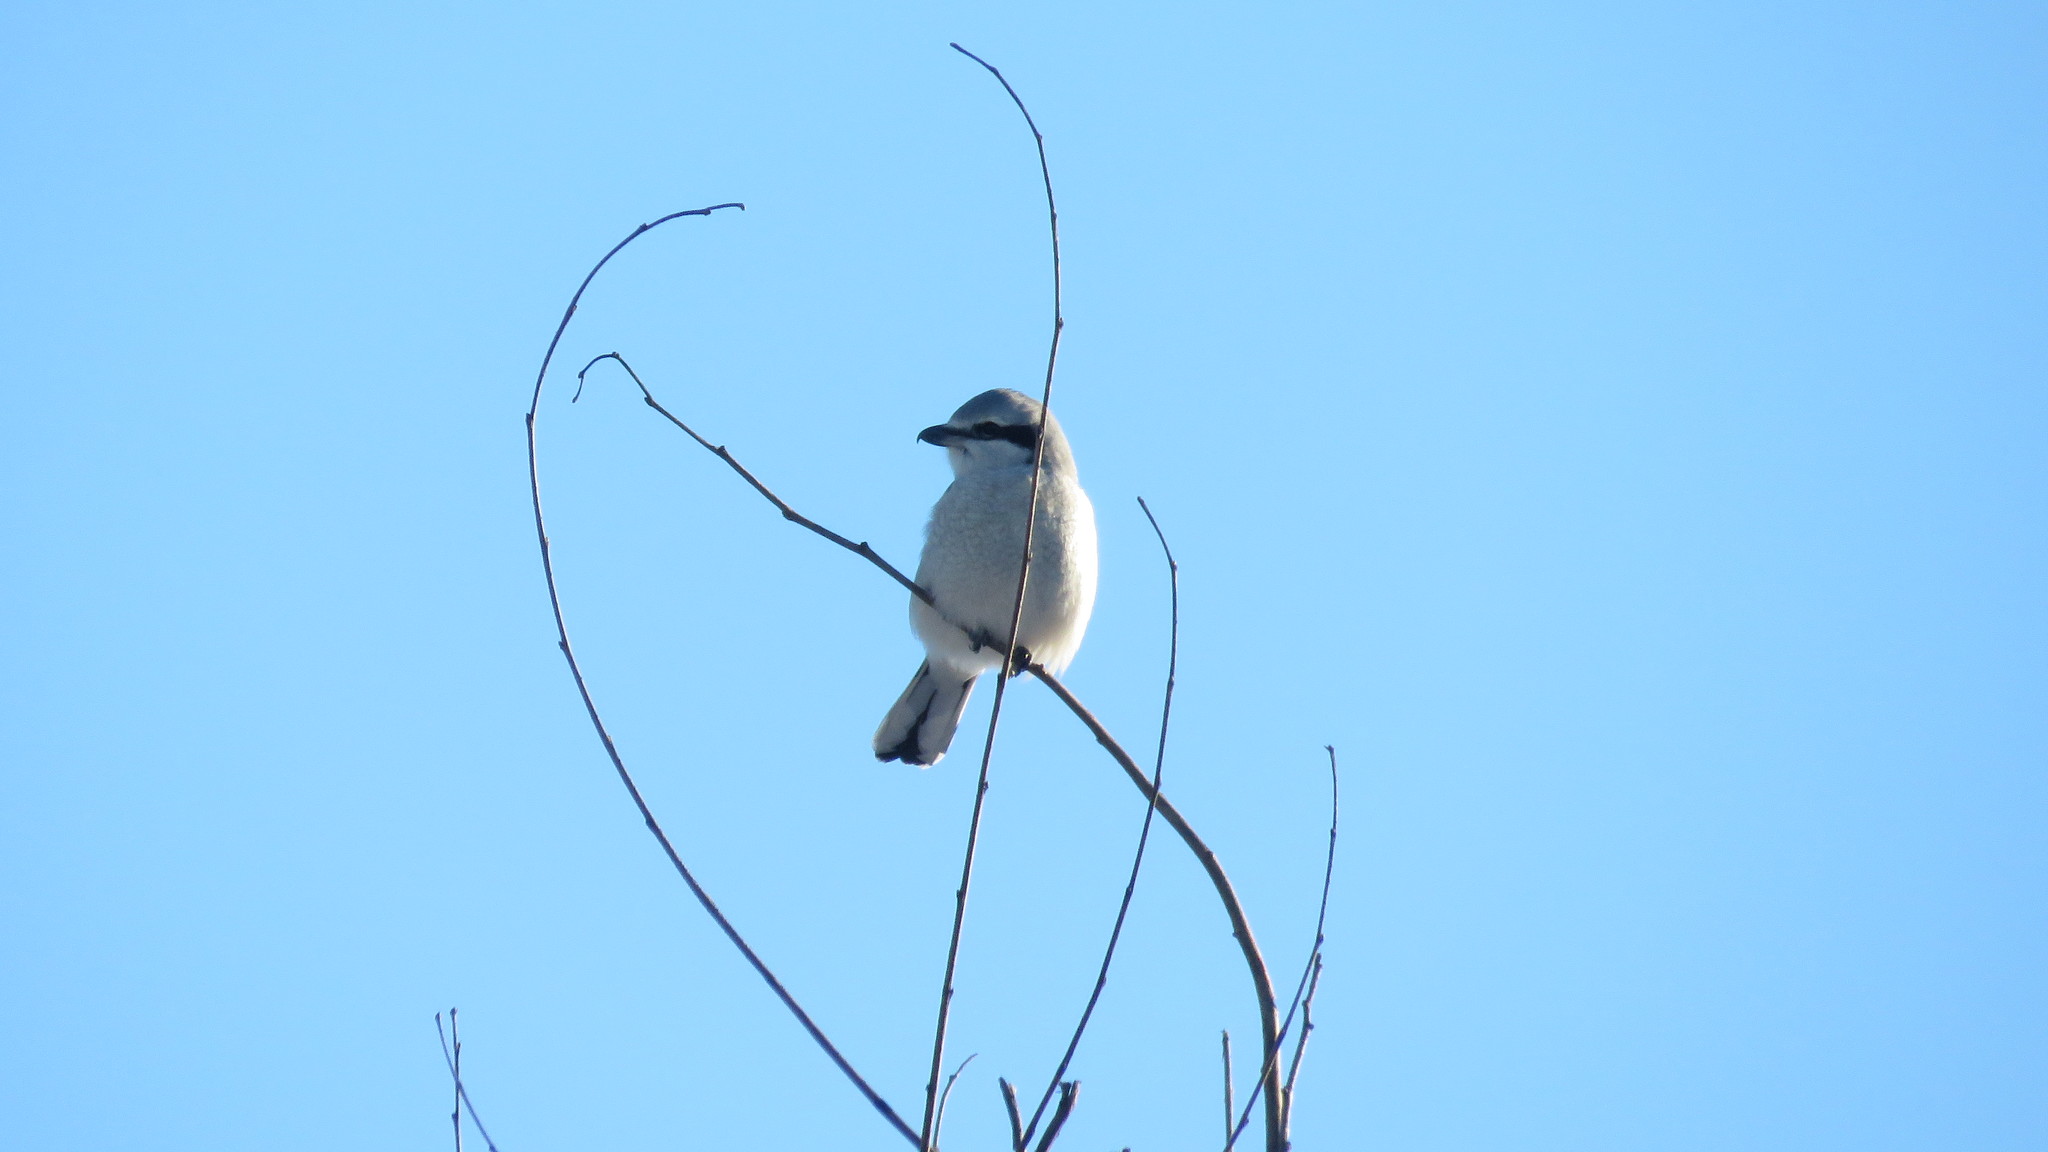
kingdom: Animalia
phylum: Chordata
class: Aves
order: Passeriformes
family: Laniidae
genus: Lanius
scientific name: Lanius borealis
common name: Northern shrike
